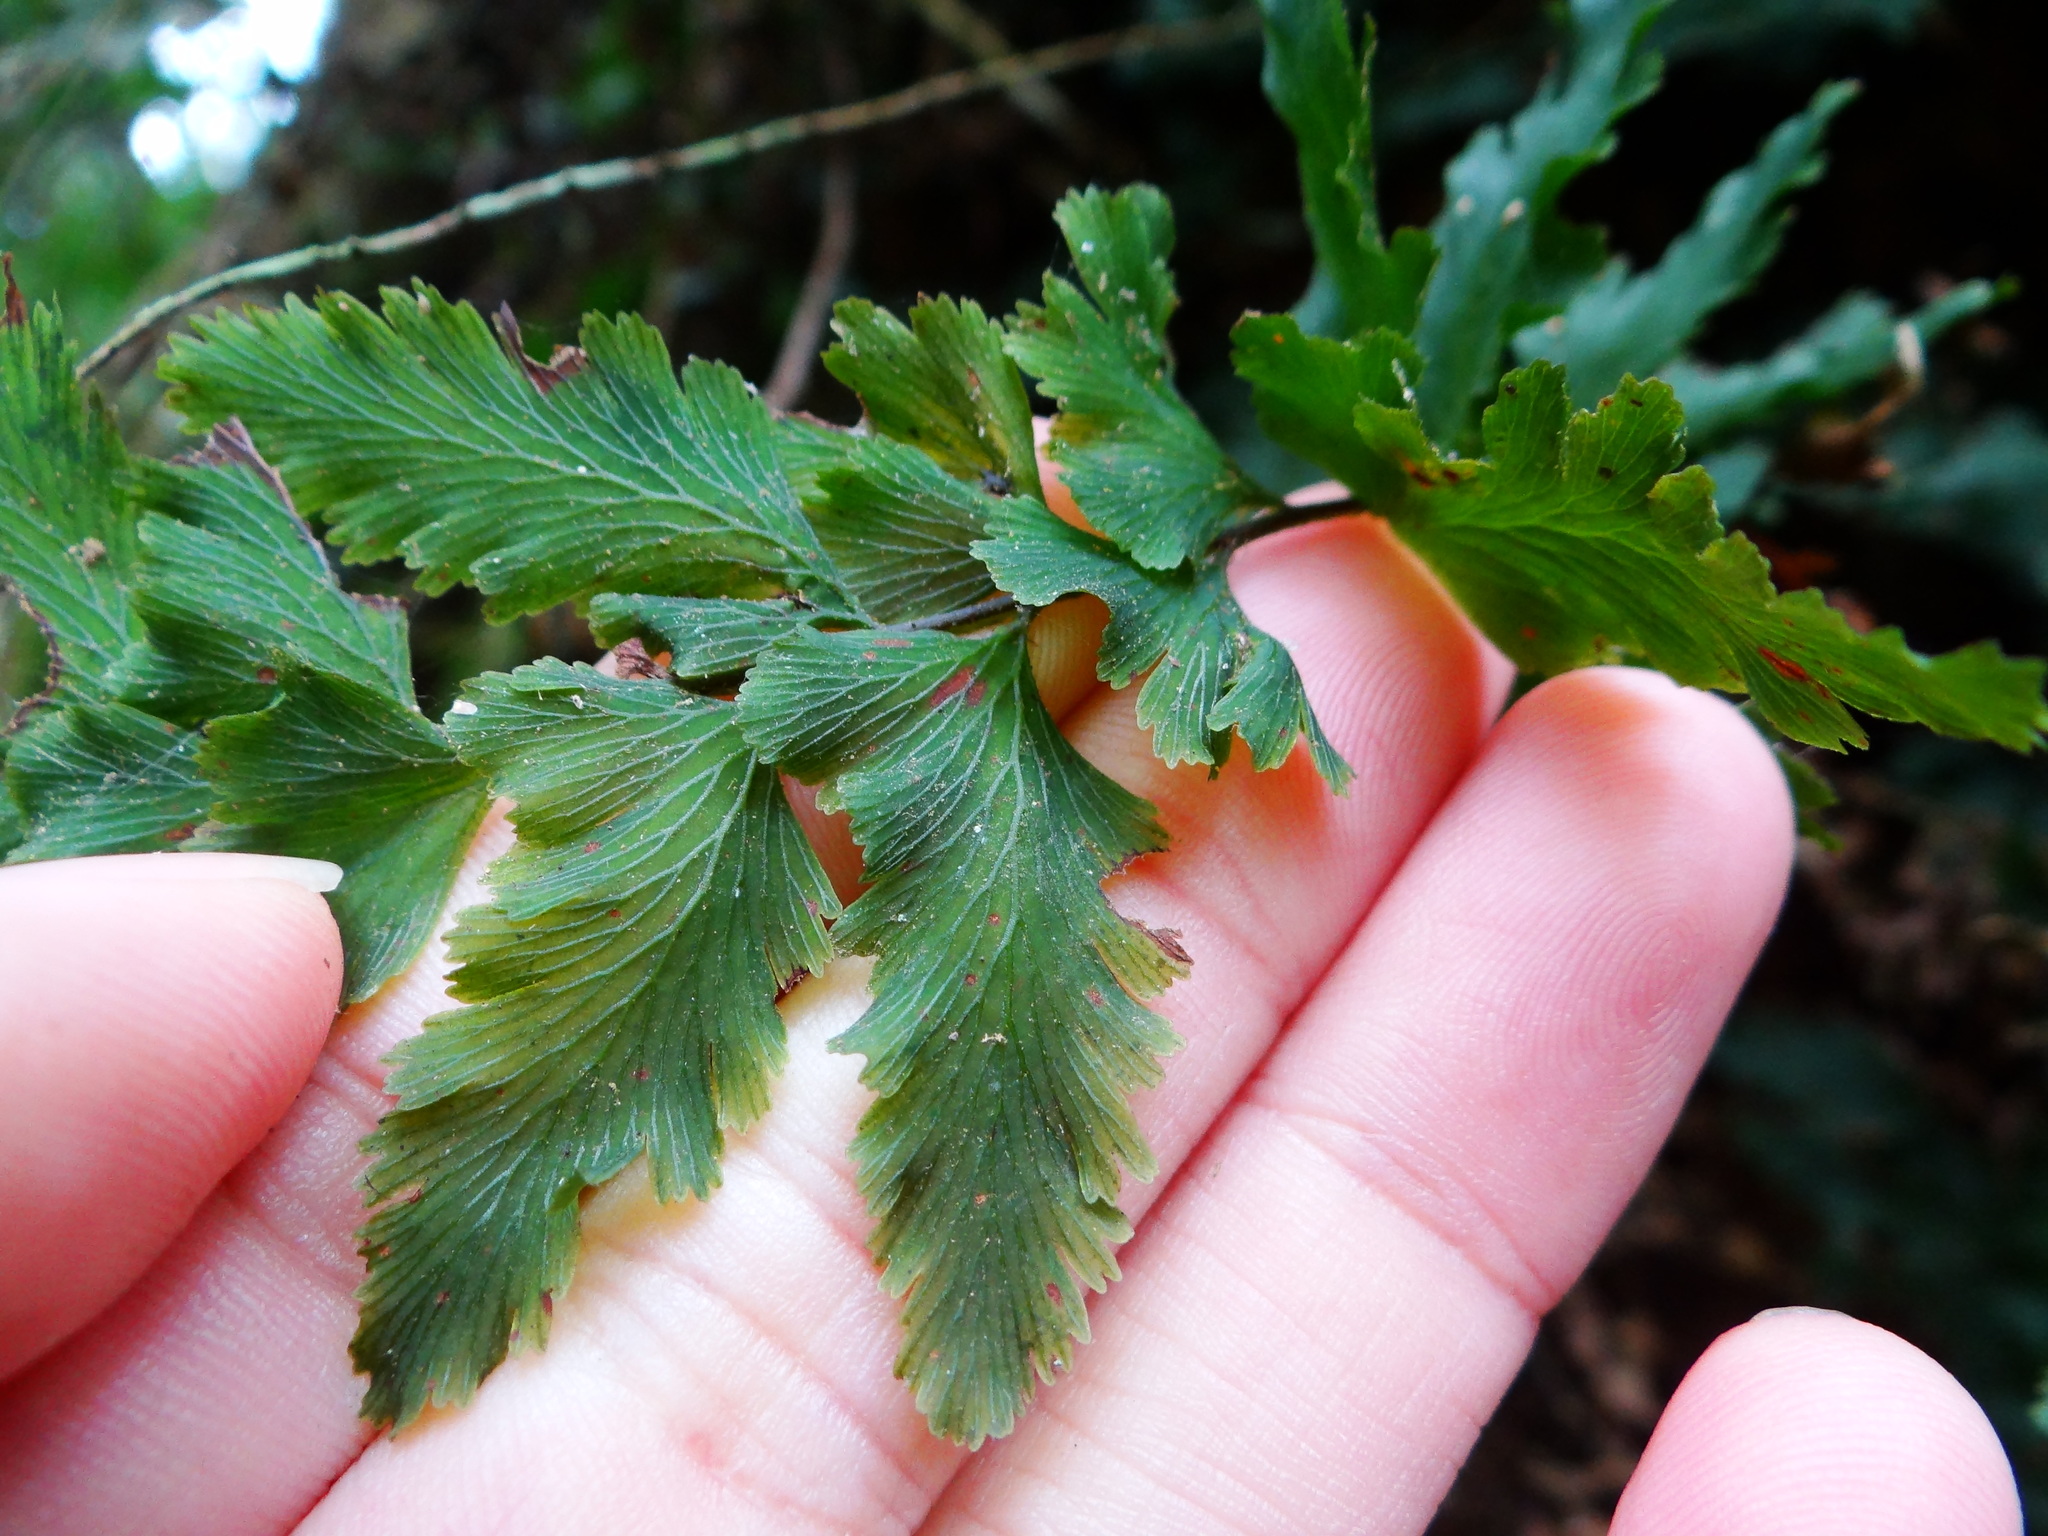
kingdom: Plantae
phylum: Tracheophyta
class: Polypodiopsida
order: Hymenophyllales
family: Hymenophyllaceae
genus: Vandenboschia
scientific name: Vandenboschia auriculata
